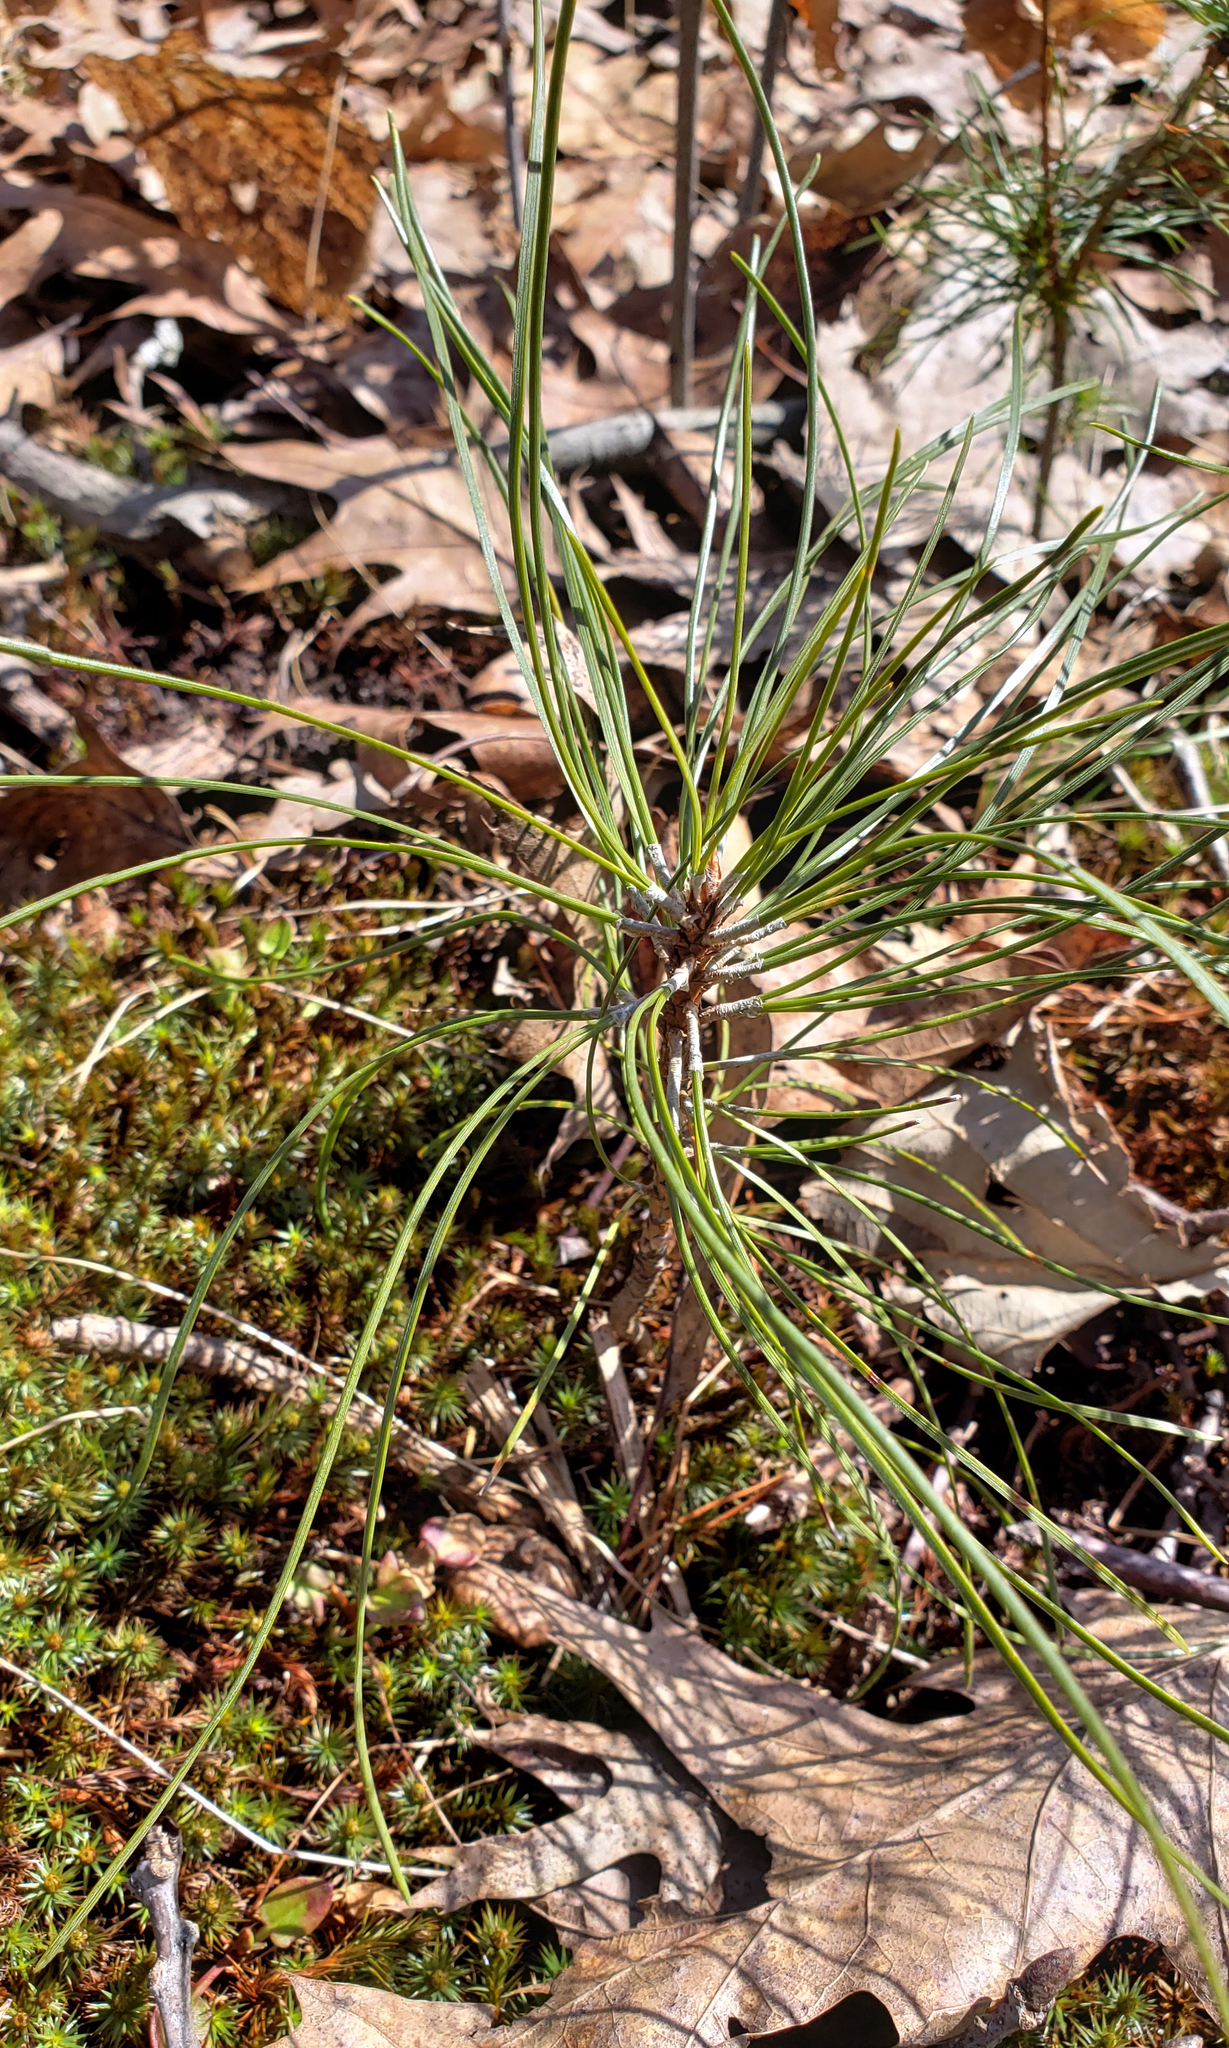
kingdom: Plantae
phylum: Tracheophyta
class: Pinopsida
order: Pinales
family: Pinaceae
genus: Pinus
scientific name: Pinus resinosa
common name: Norway pine
